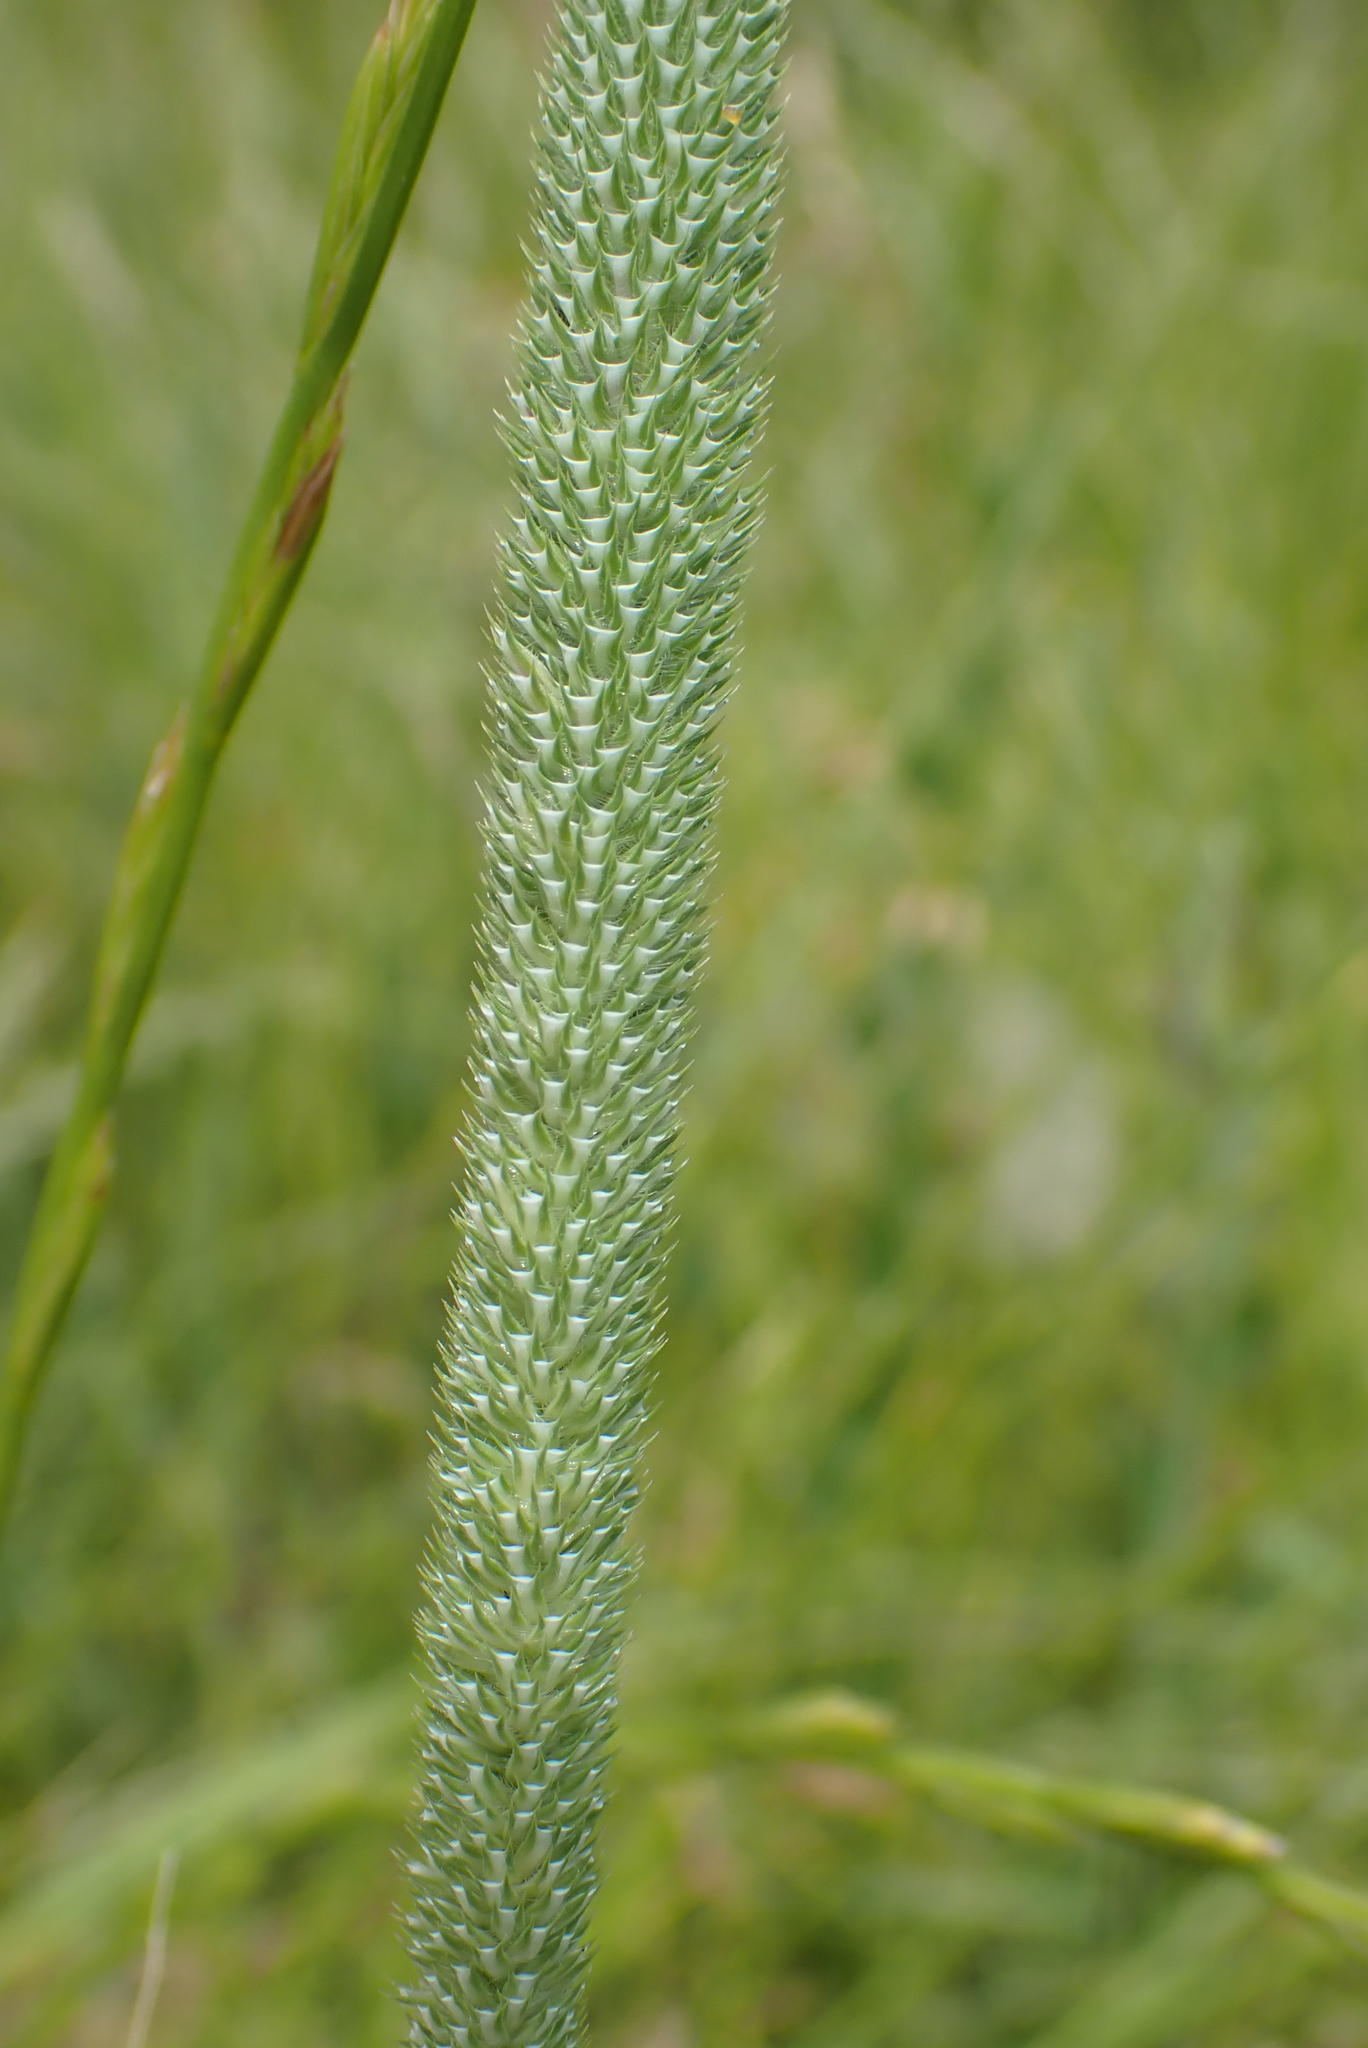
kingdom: Plantae
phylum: Tracheophyta
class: Liliopsida
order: Poales
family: Poaceae
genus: Phleum
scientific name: Phleum pratense
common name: Timothy grass
